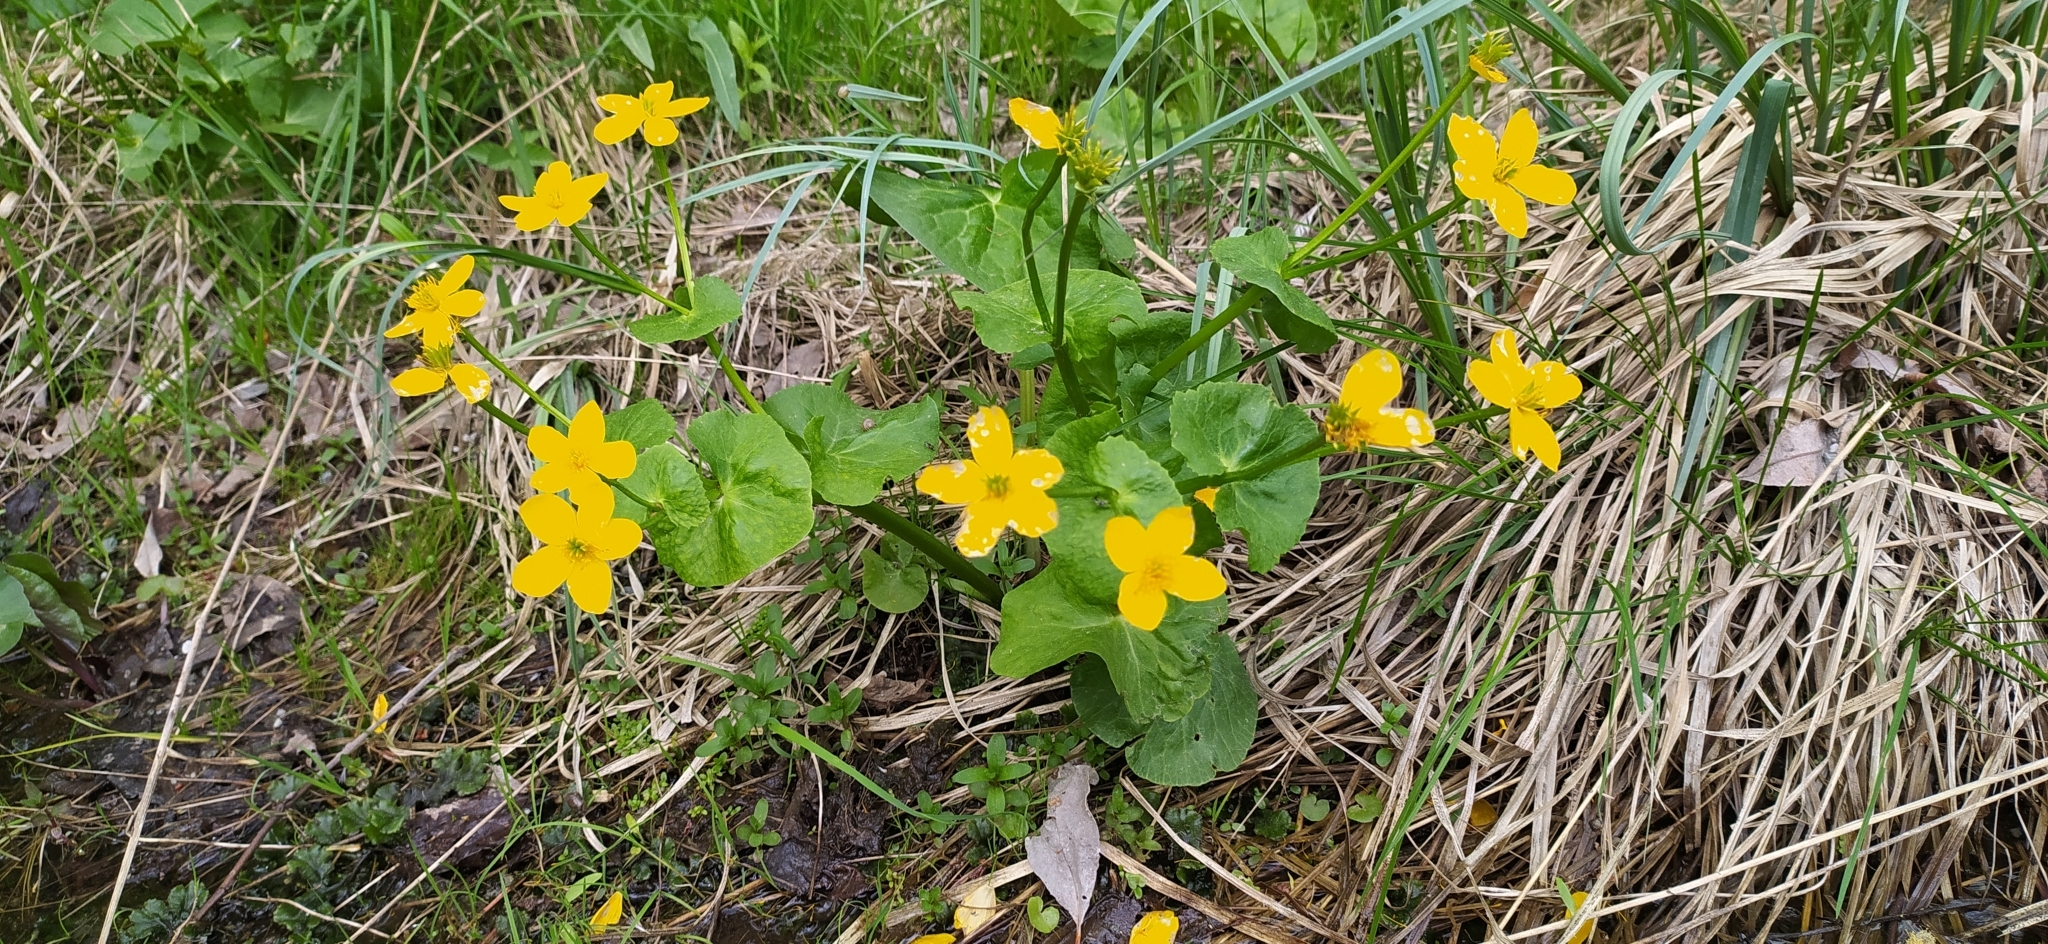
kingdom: Plantae
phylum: Tracheophyta
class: Magnoliopsida
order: Ranunculales
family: Ranunculaceae
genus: Caltha
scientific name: Caltha palustris
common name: Marsh marigold
